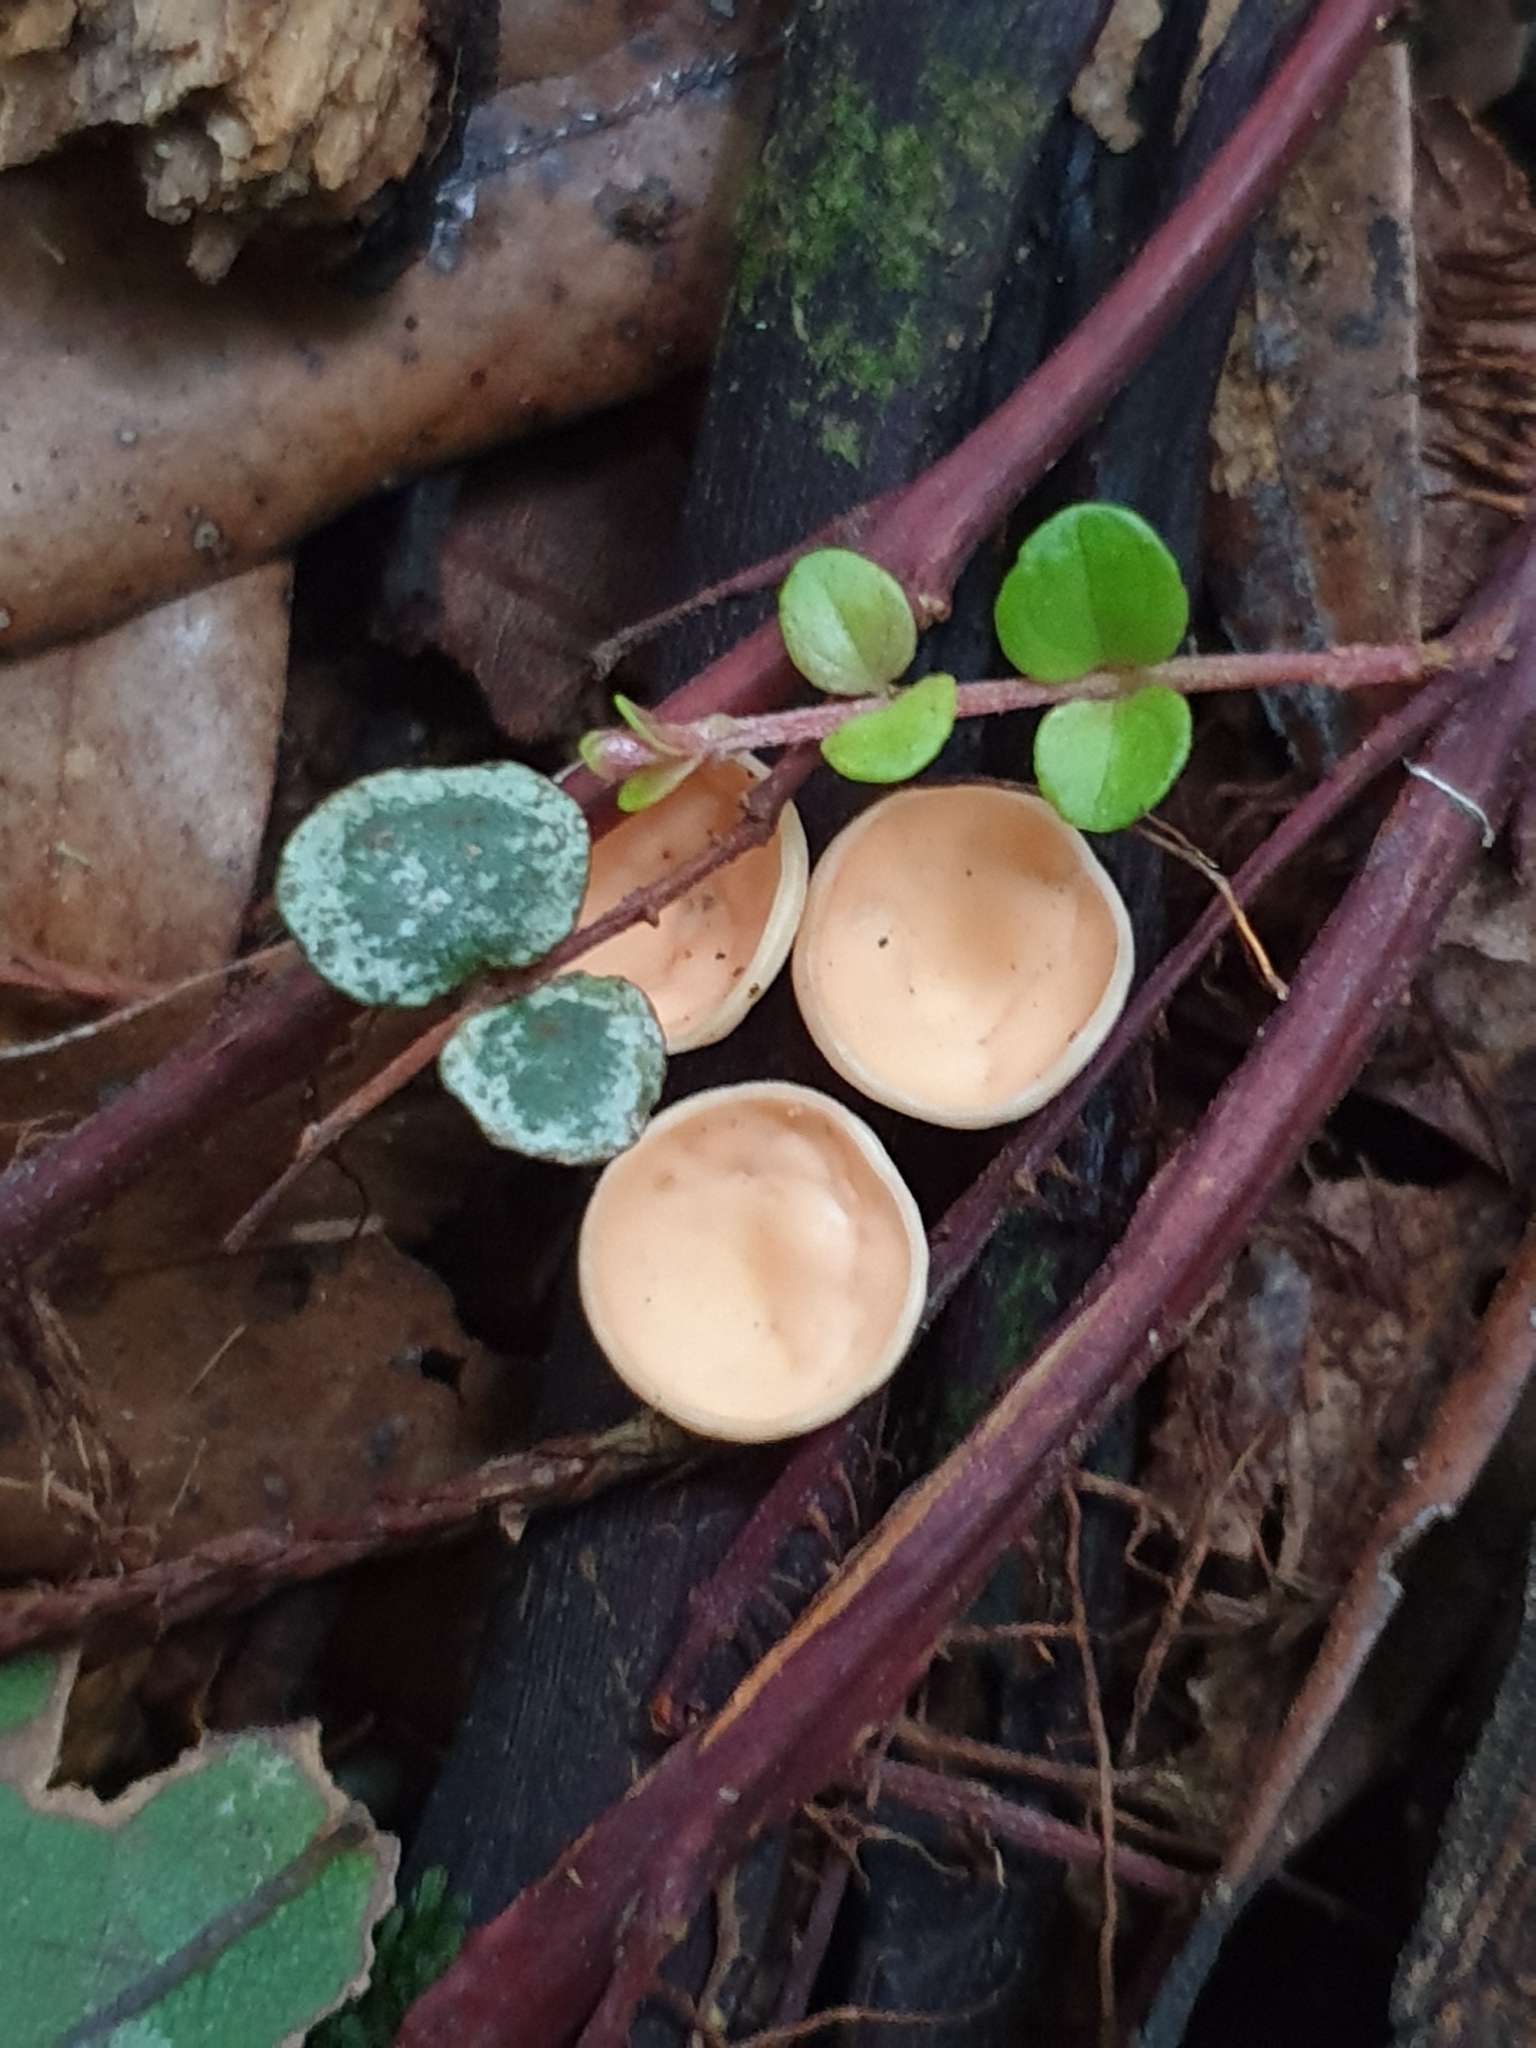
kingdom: Fungi
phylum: Ascomycota
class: Pezizomycetes
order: Pezizales
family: Sarcoscyphaceae
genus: Cookeina
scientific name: Cookeina colensoi
